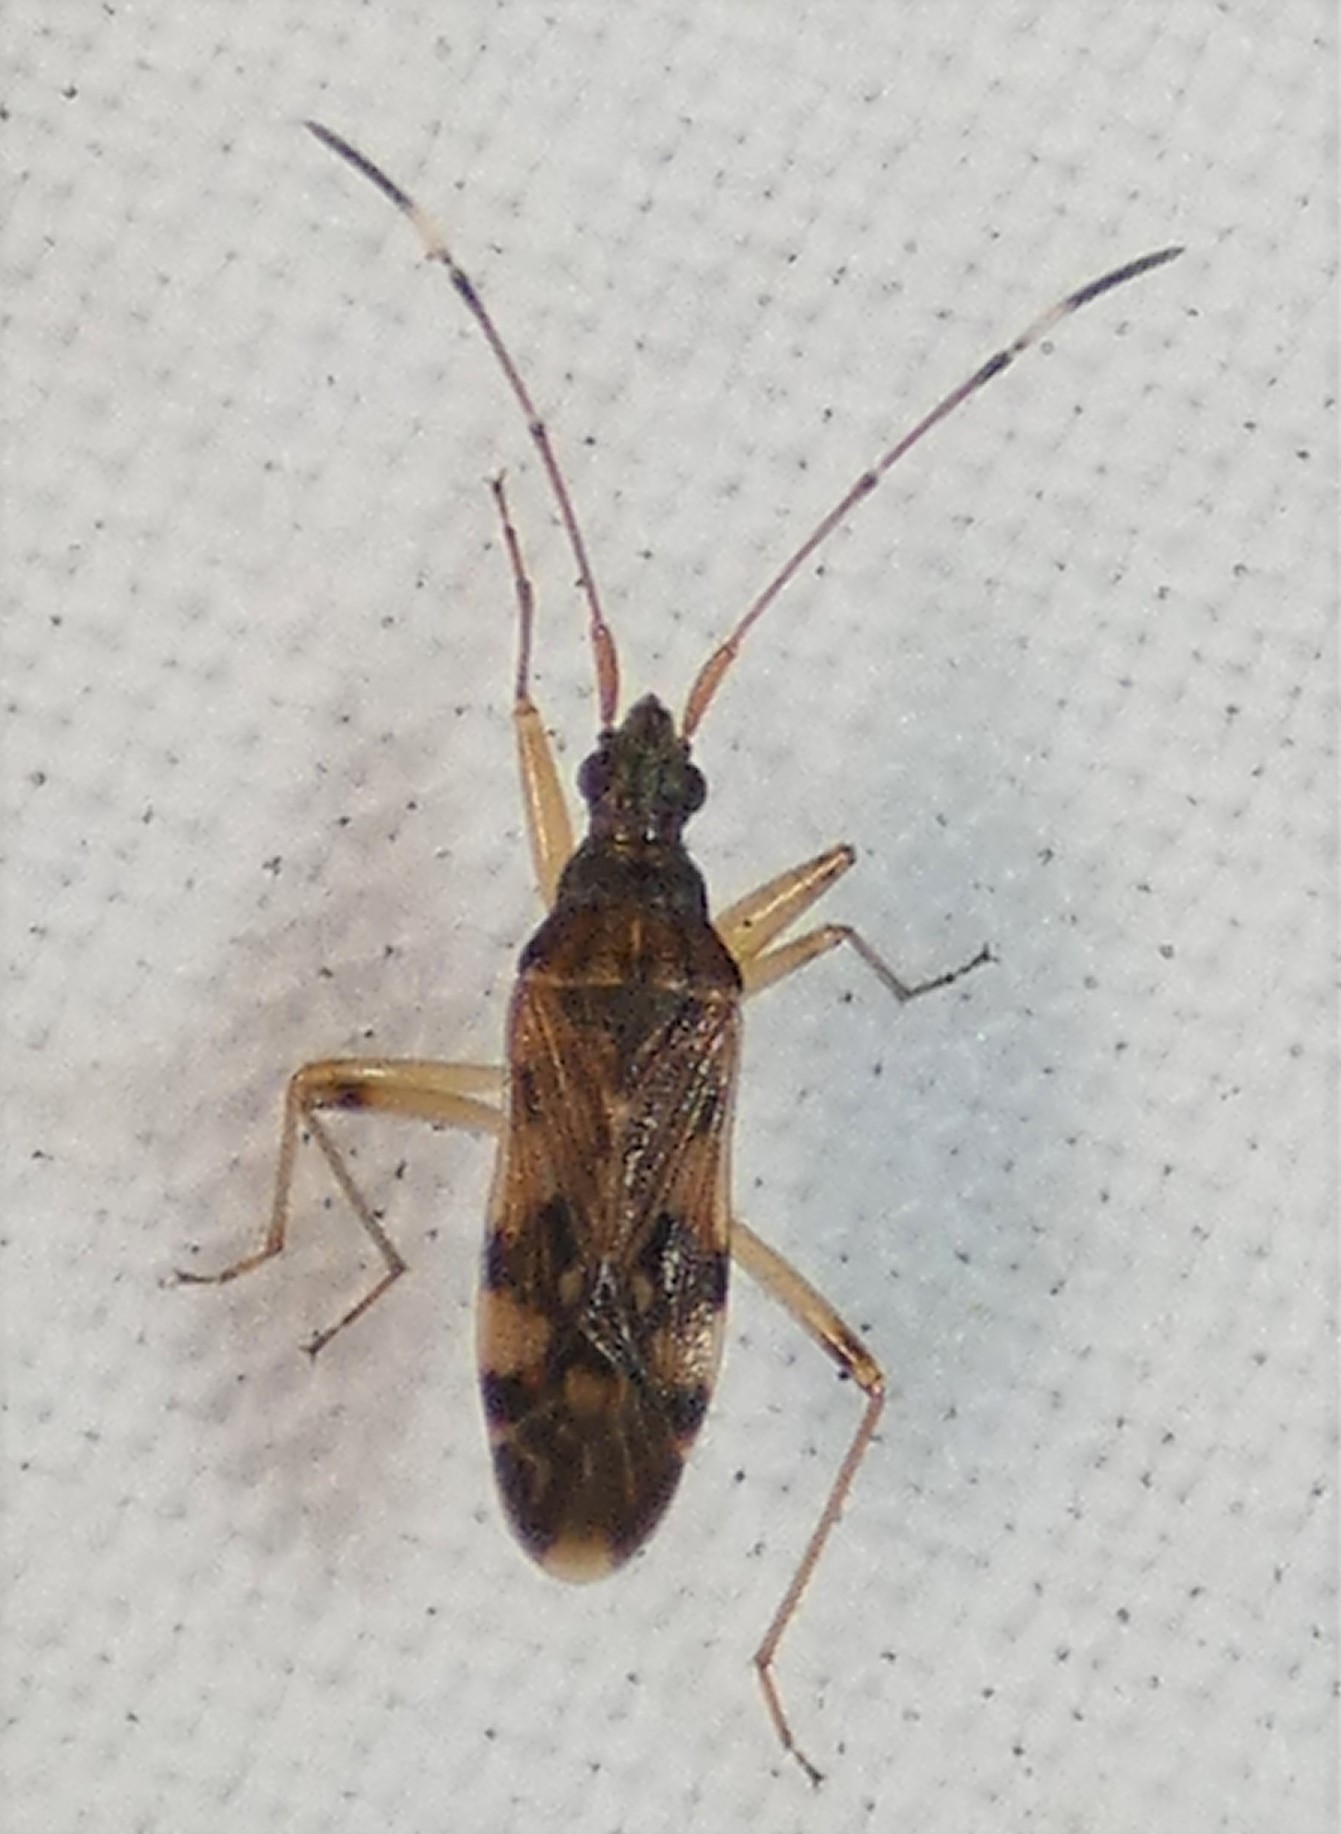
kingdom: Animalia
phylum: Arthropoda
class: Insecta
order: Hemiptera
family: Rhyparochromidae
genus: Ozophora
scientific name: Ozophora picturata
